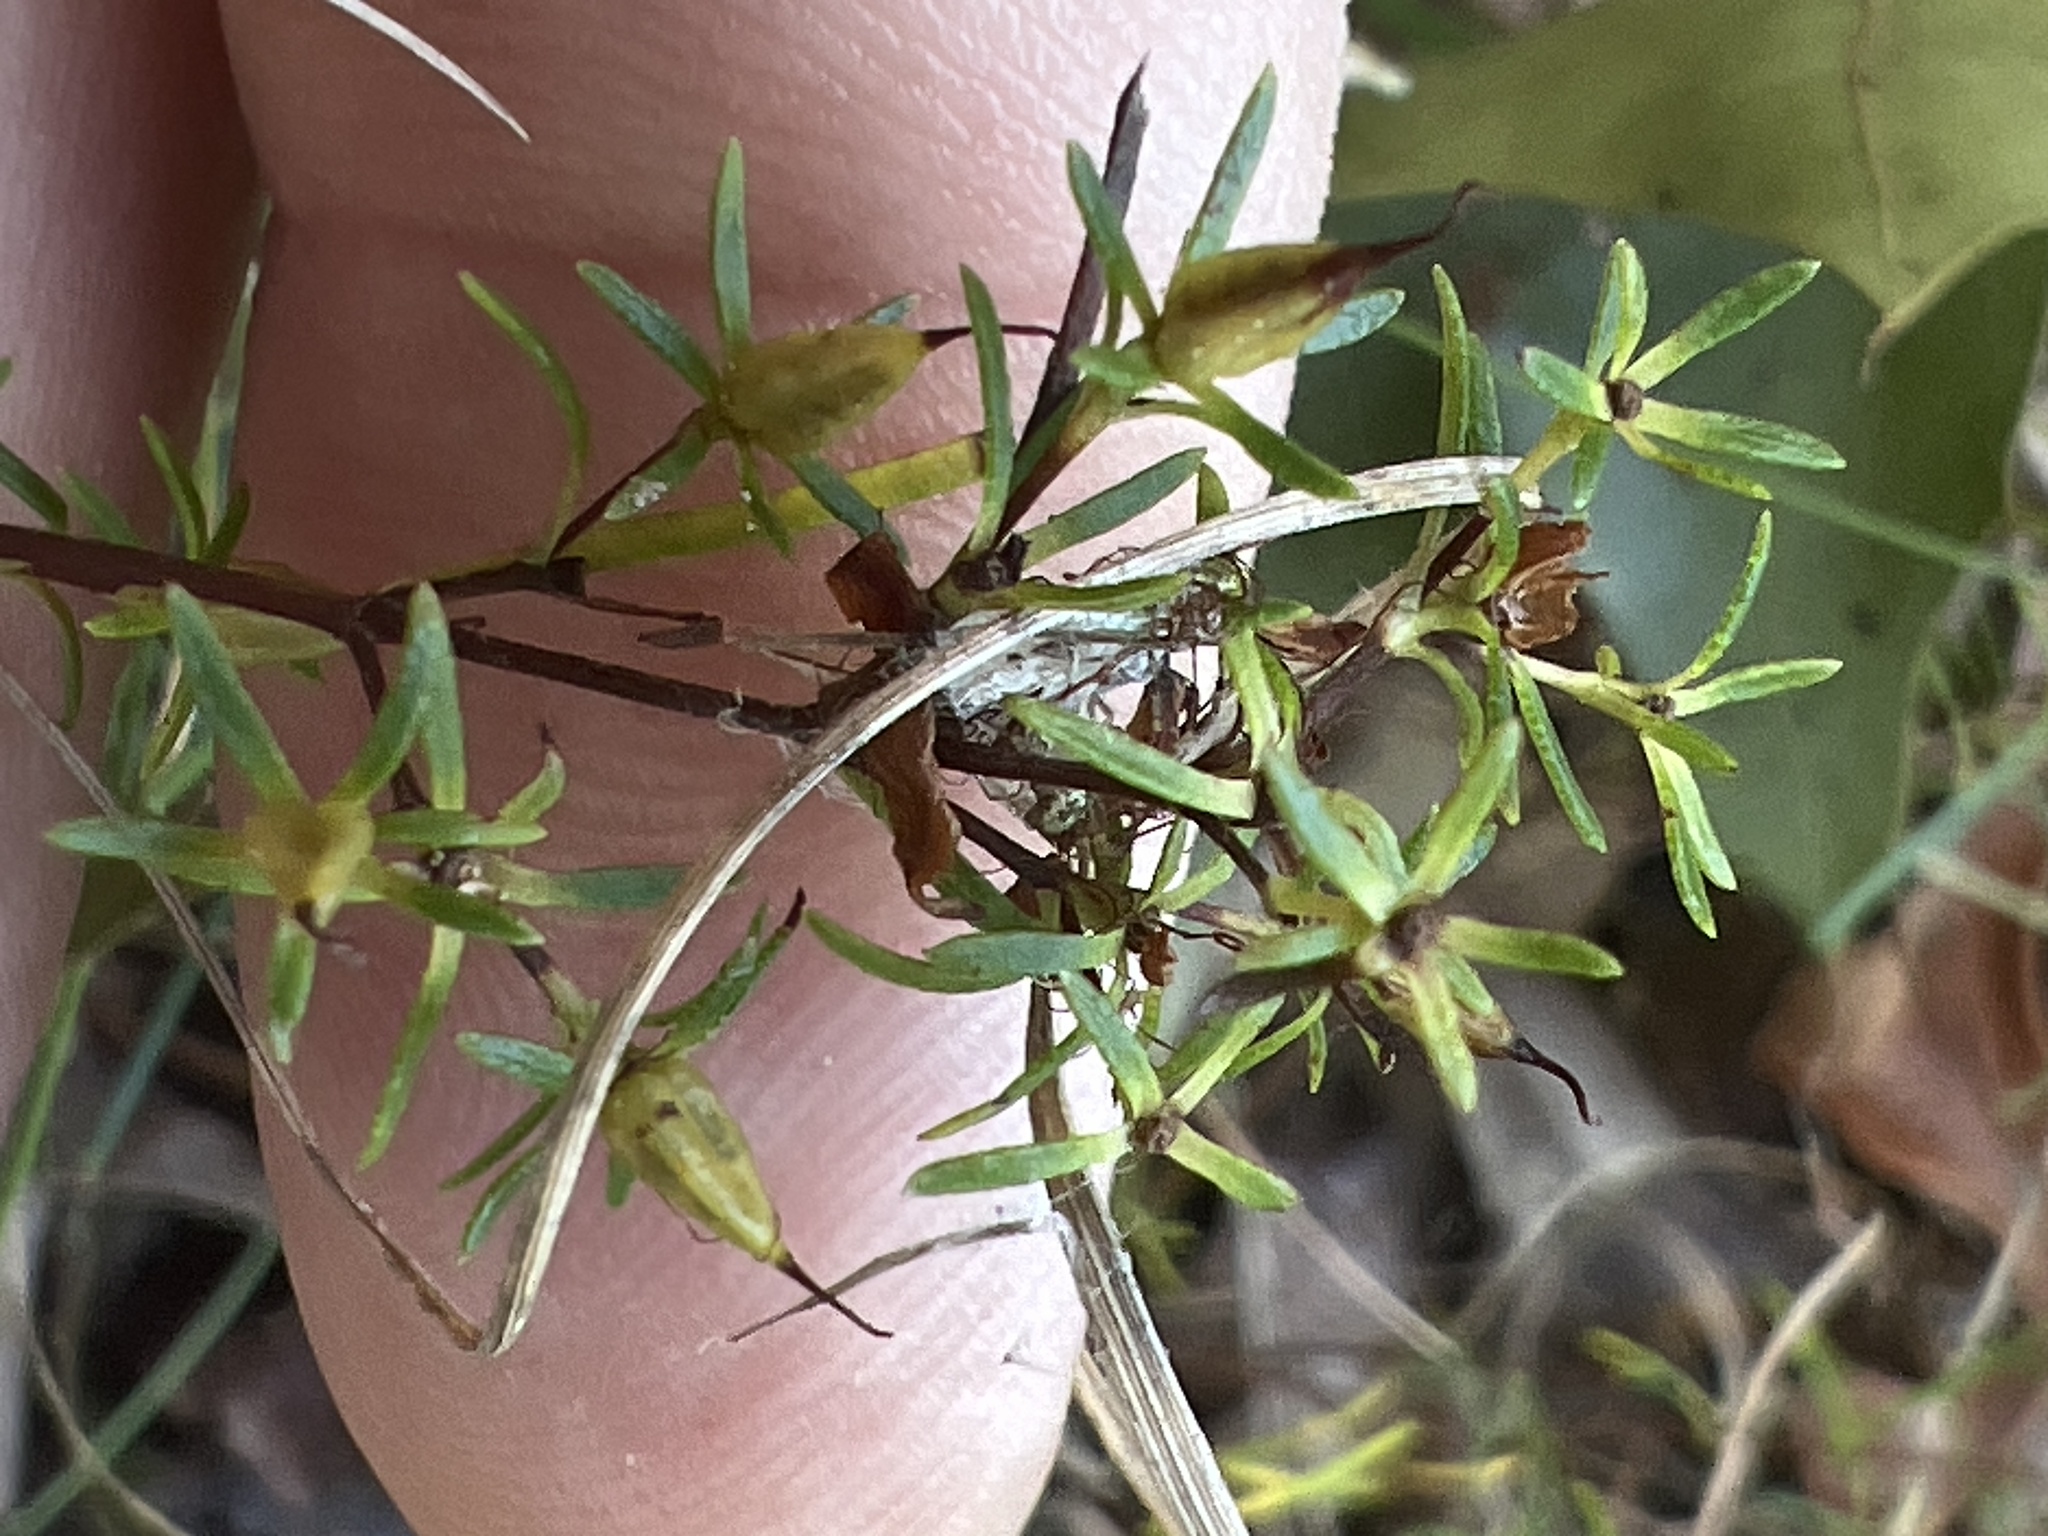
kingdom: Plantae
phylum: Tracheophyta
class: Magnoliopsida
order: Malpighiales
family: Hypericaceae
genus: Hypericum
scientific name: Hypericum lloydii
